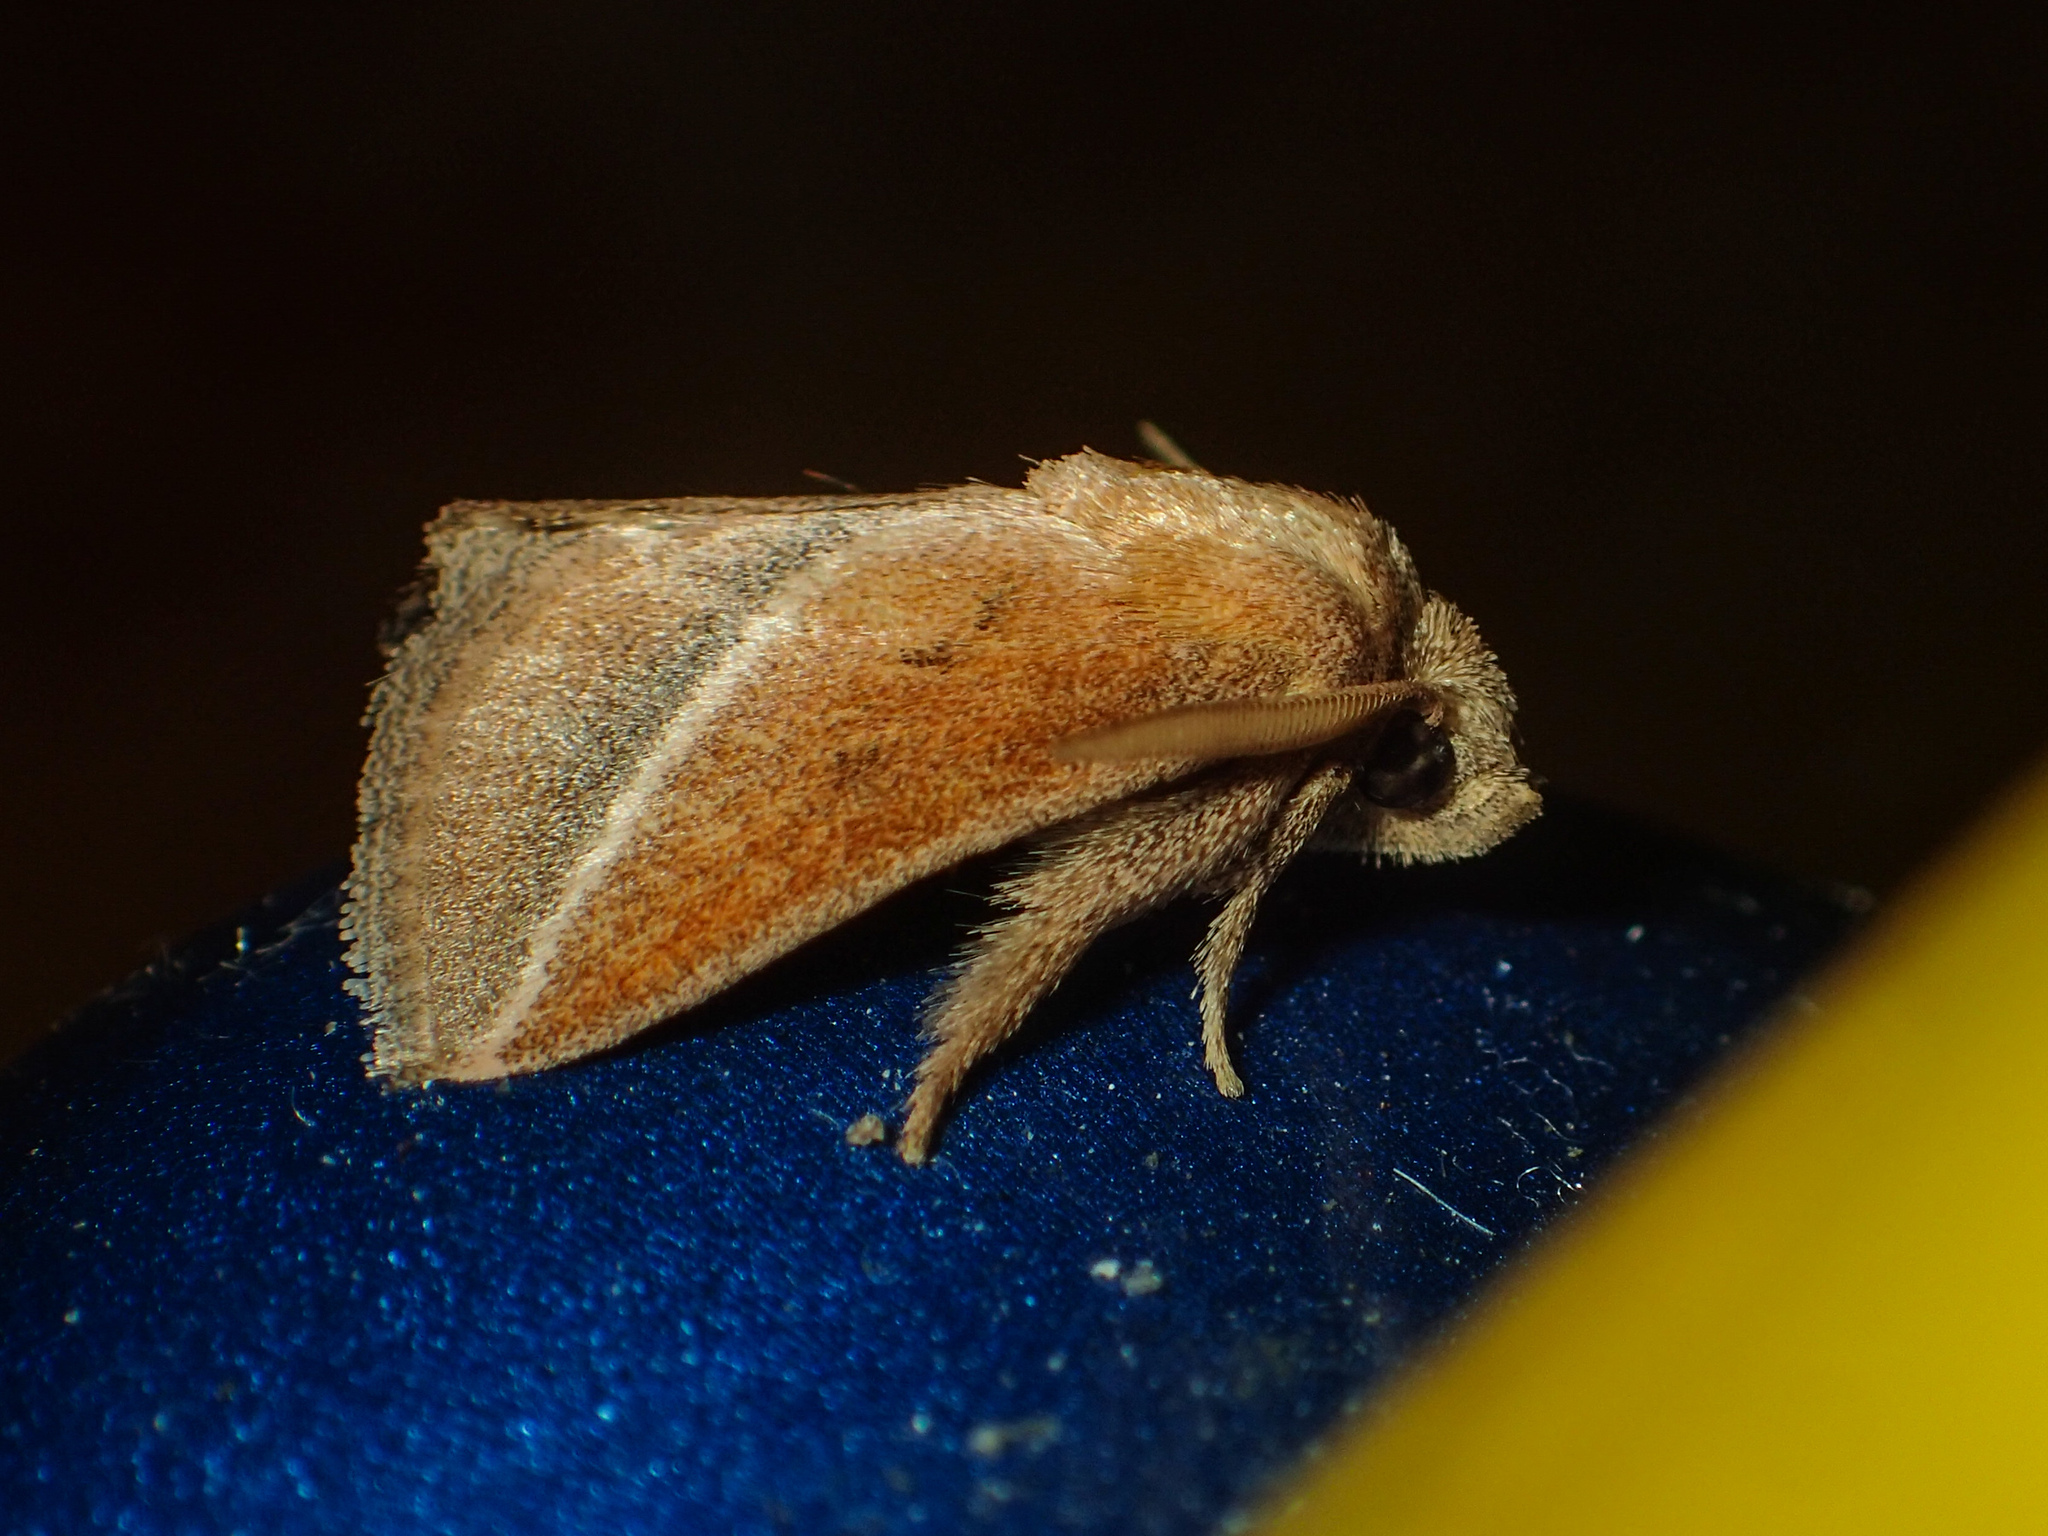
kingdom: Animalia
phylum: Arthropoda
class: Insecta
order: Lepidoptera
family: Limacodidae
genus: Oxyplax
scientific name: Oxyplax pallivitta
